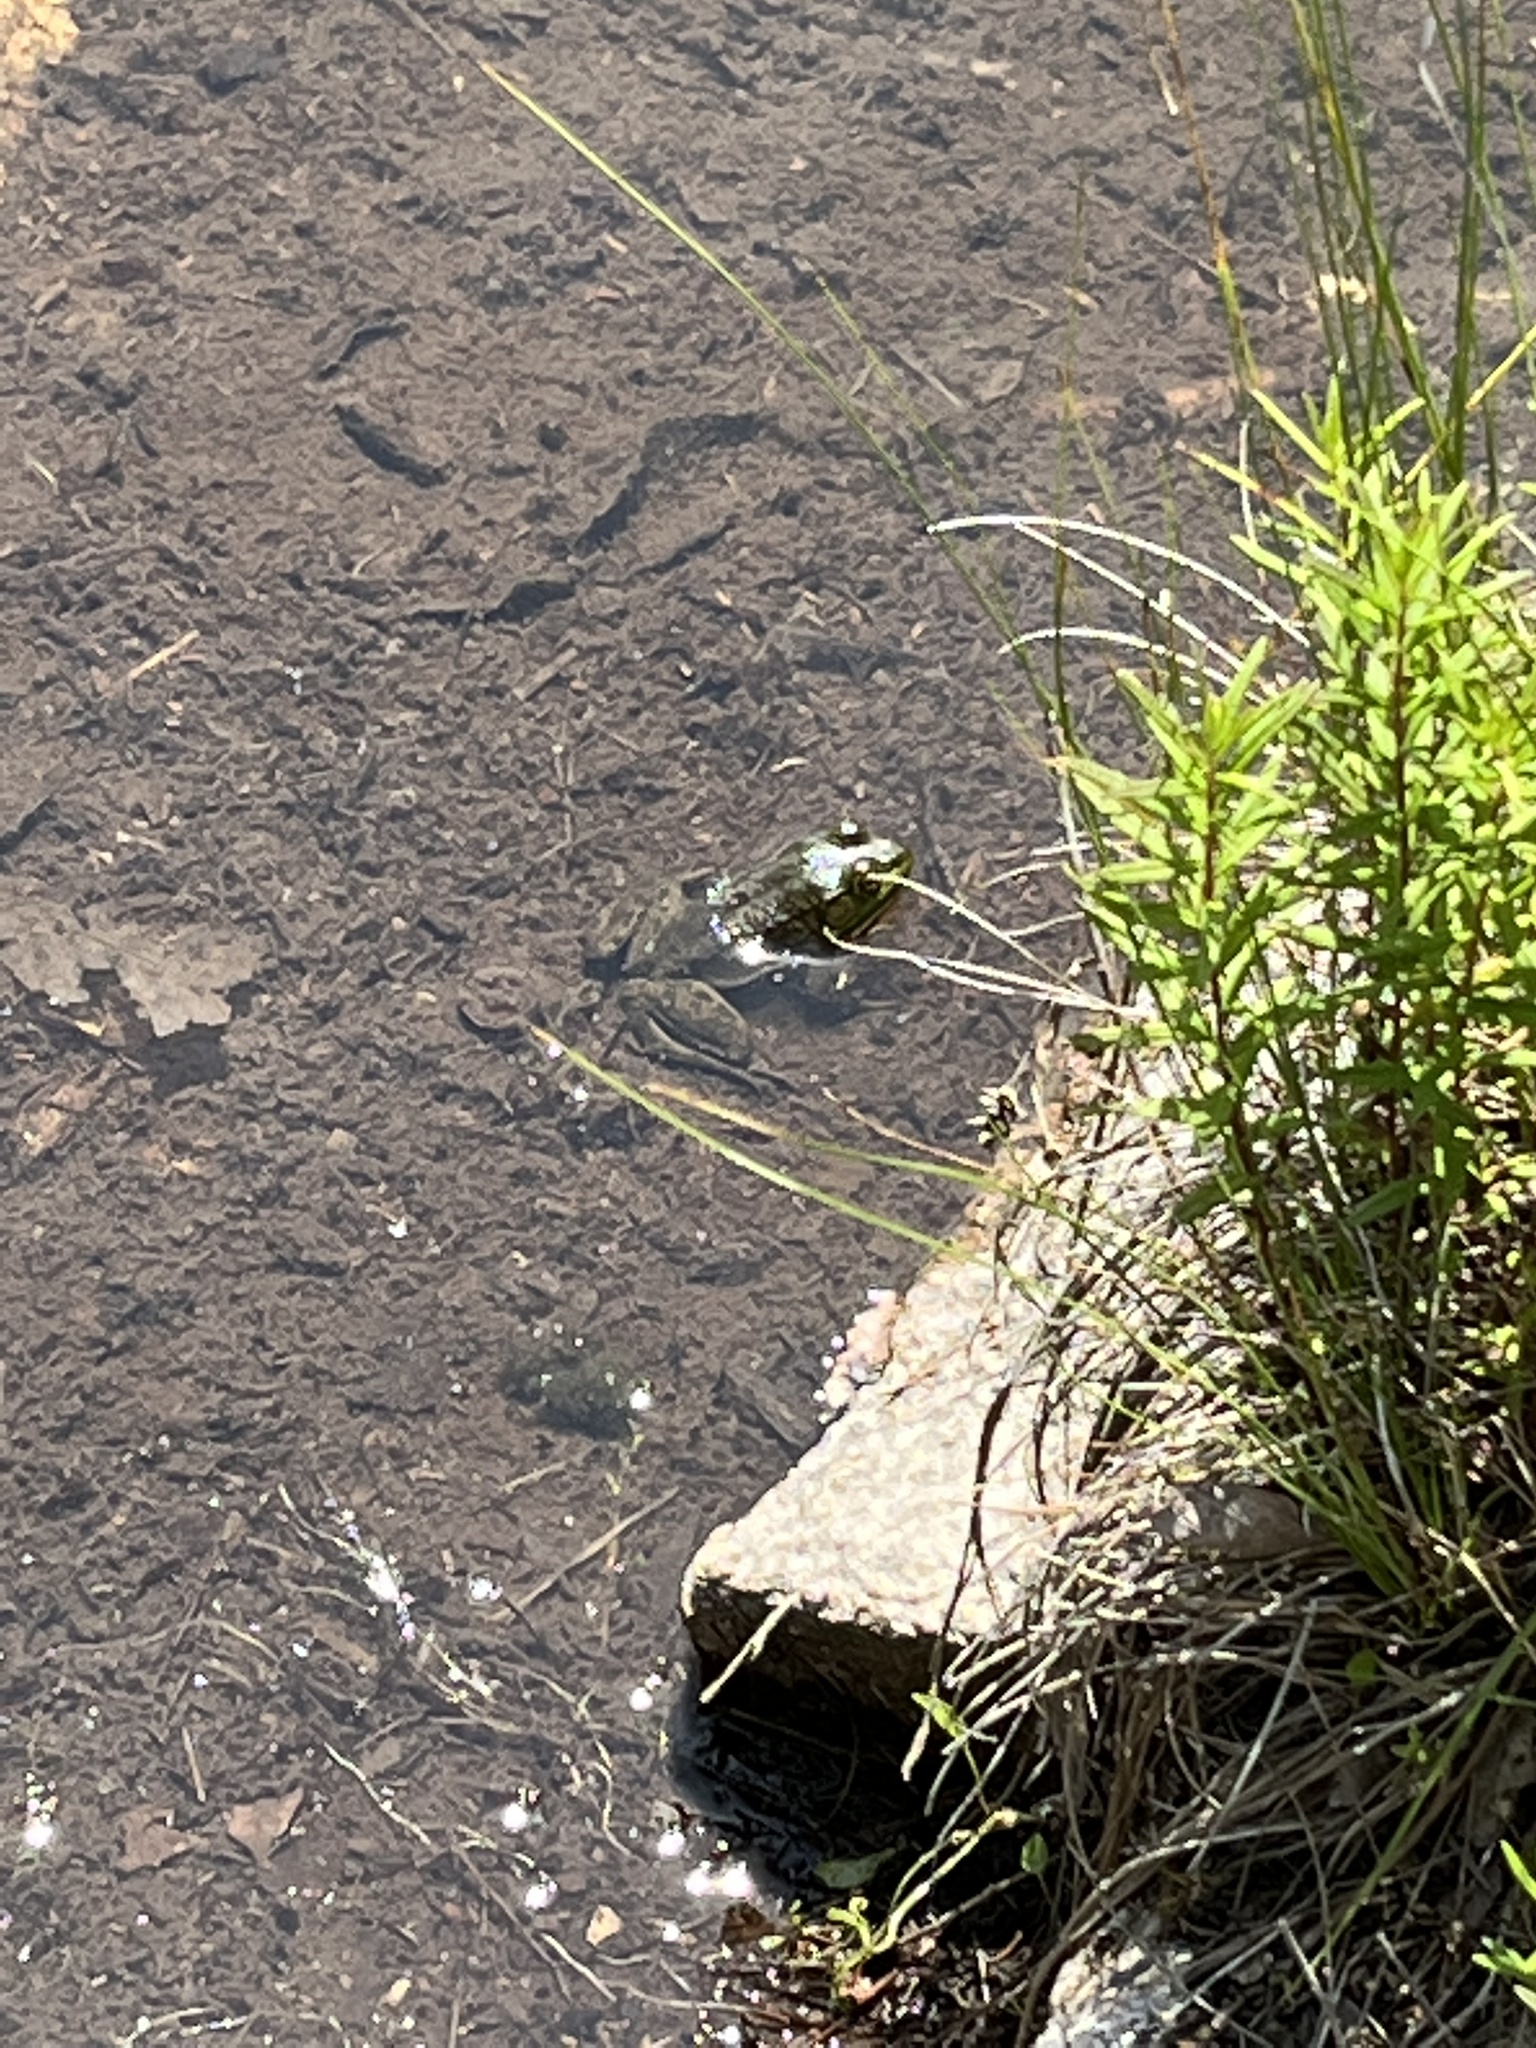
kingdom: Animalia
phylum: Chordata
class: Amphibia
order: Anura
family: Ranidae
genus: Lithobates
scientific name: Lithobates clamitans
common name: Green frog
